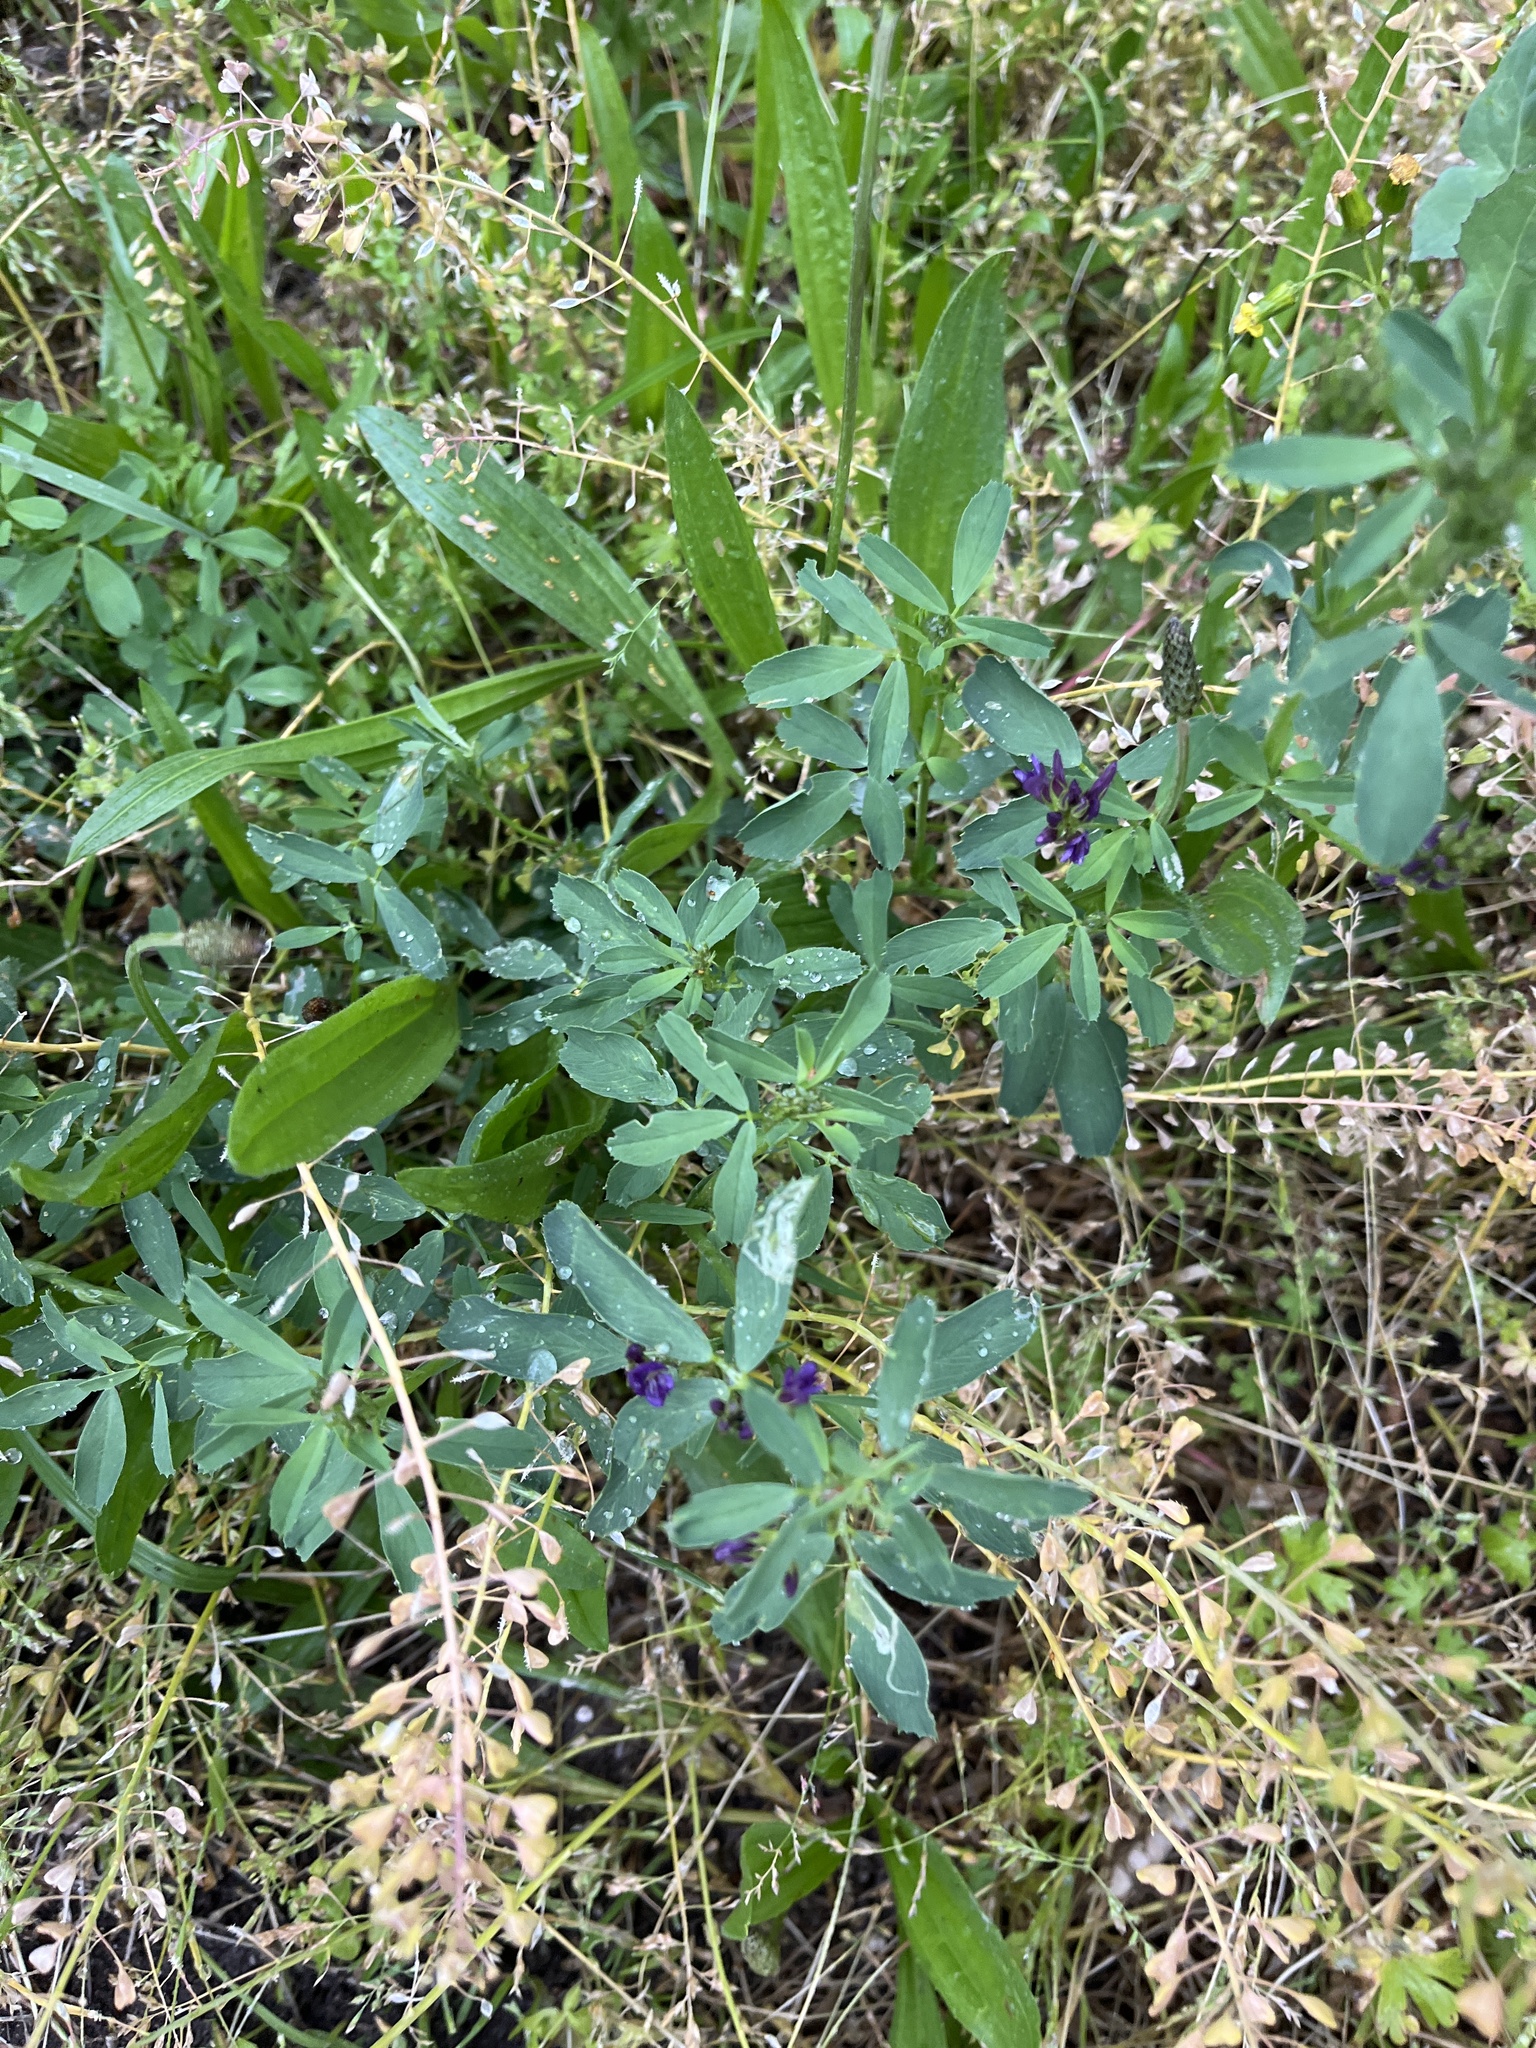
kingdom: Plantae
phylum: Tracheophyta
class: Magnoliopsida
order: Fabales
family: Fabaceae
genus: Medicago
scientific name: Medicago sativa
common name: Alfalfa
